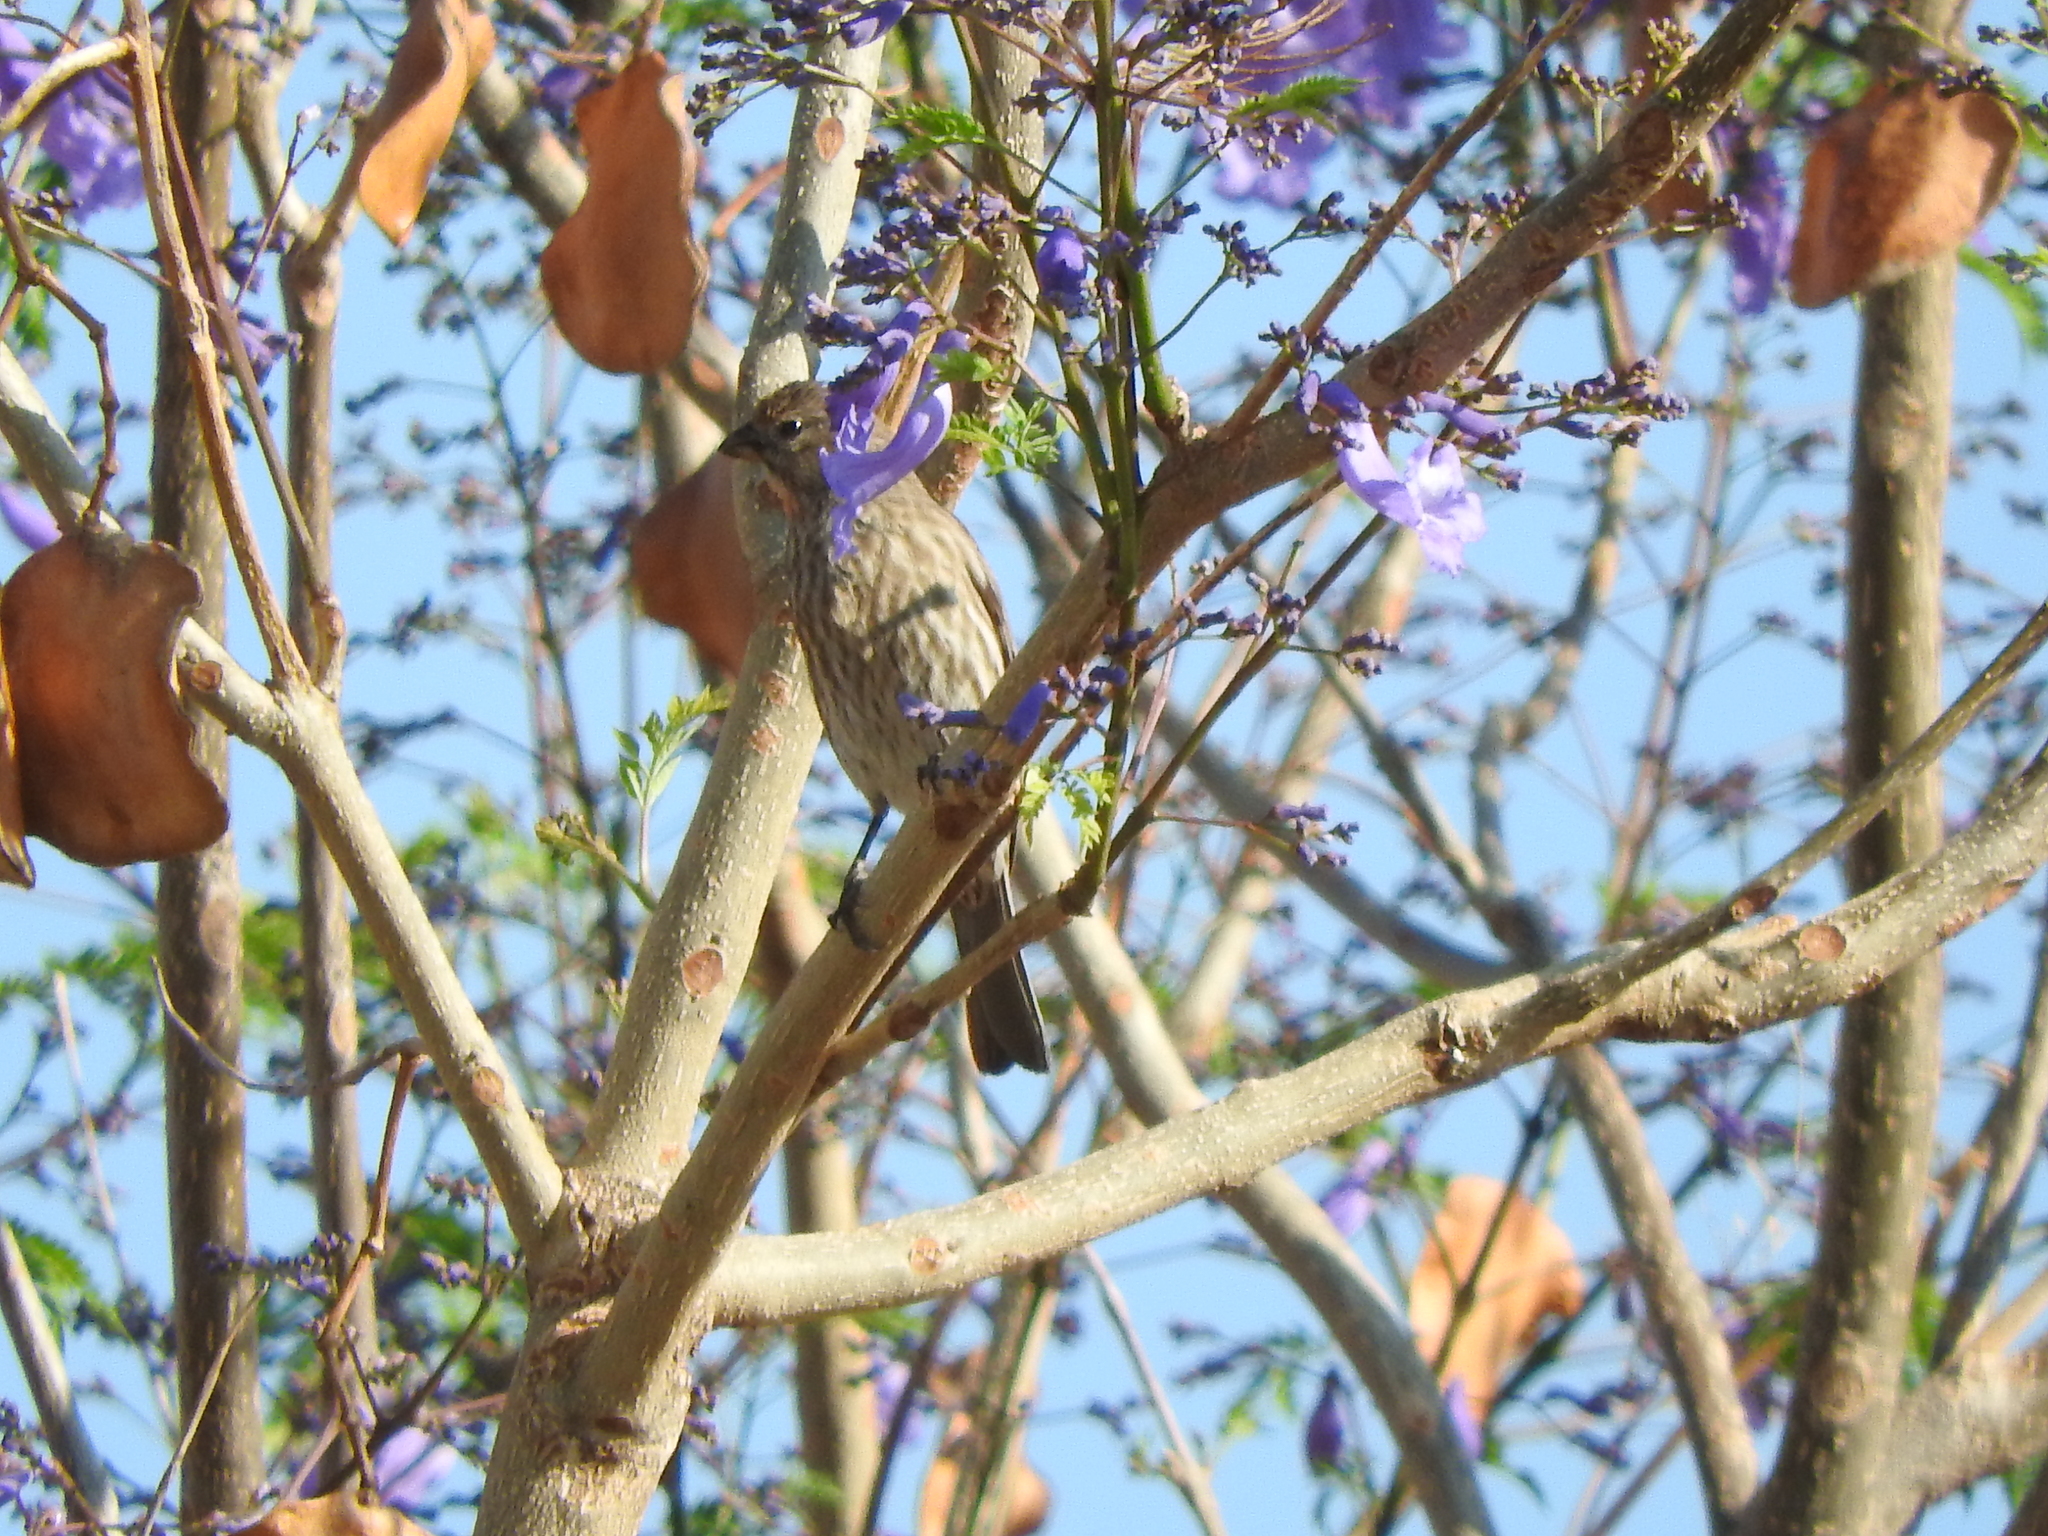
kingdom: Animalia
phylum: Chordata
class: Aves
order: Passeriformes
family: Fringillidae
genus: Haemorhous
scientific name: Haemorhous mexicanus
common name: House finch
